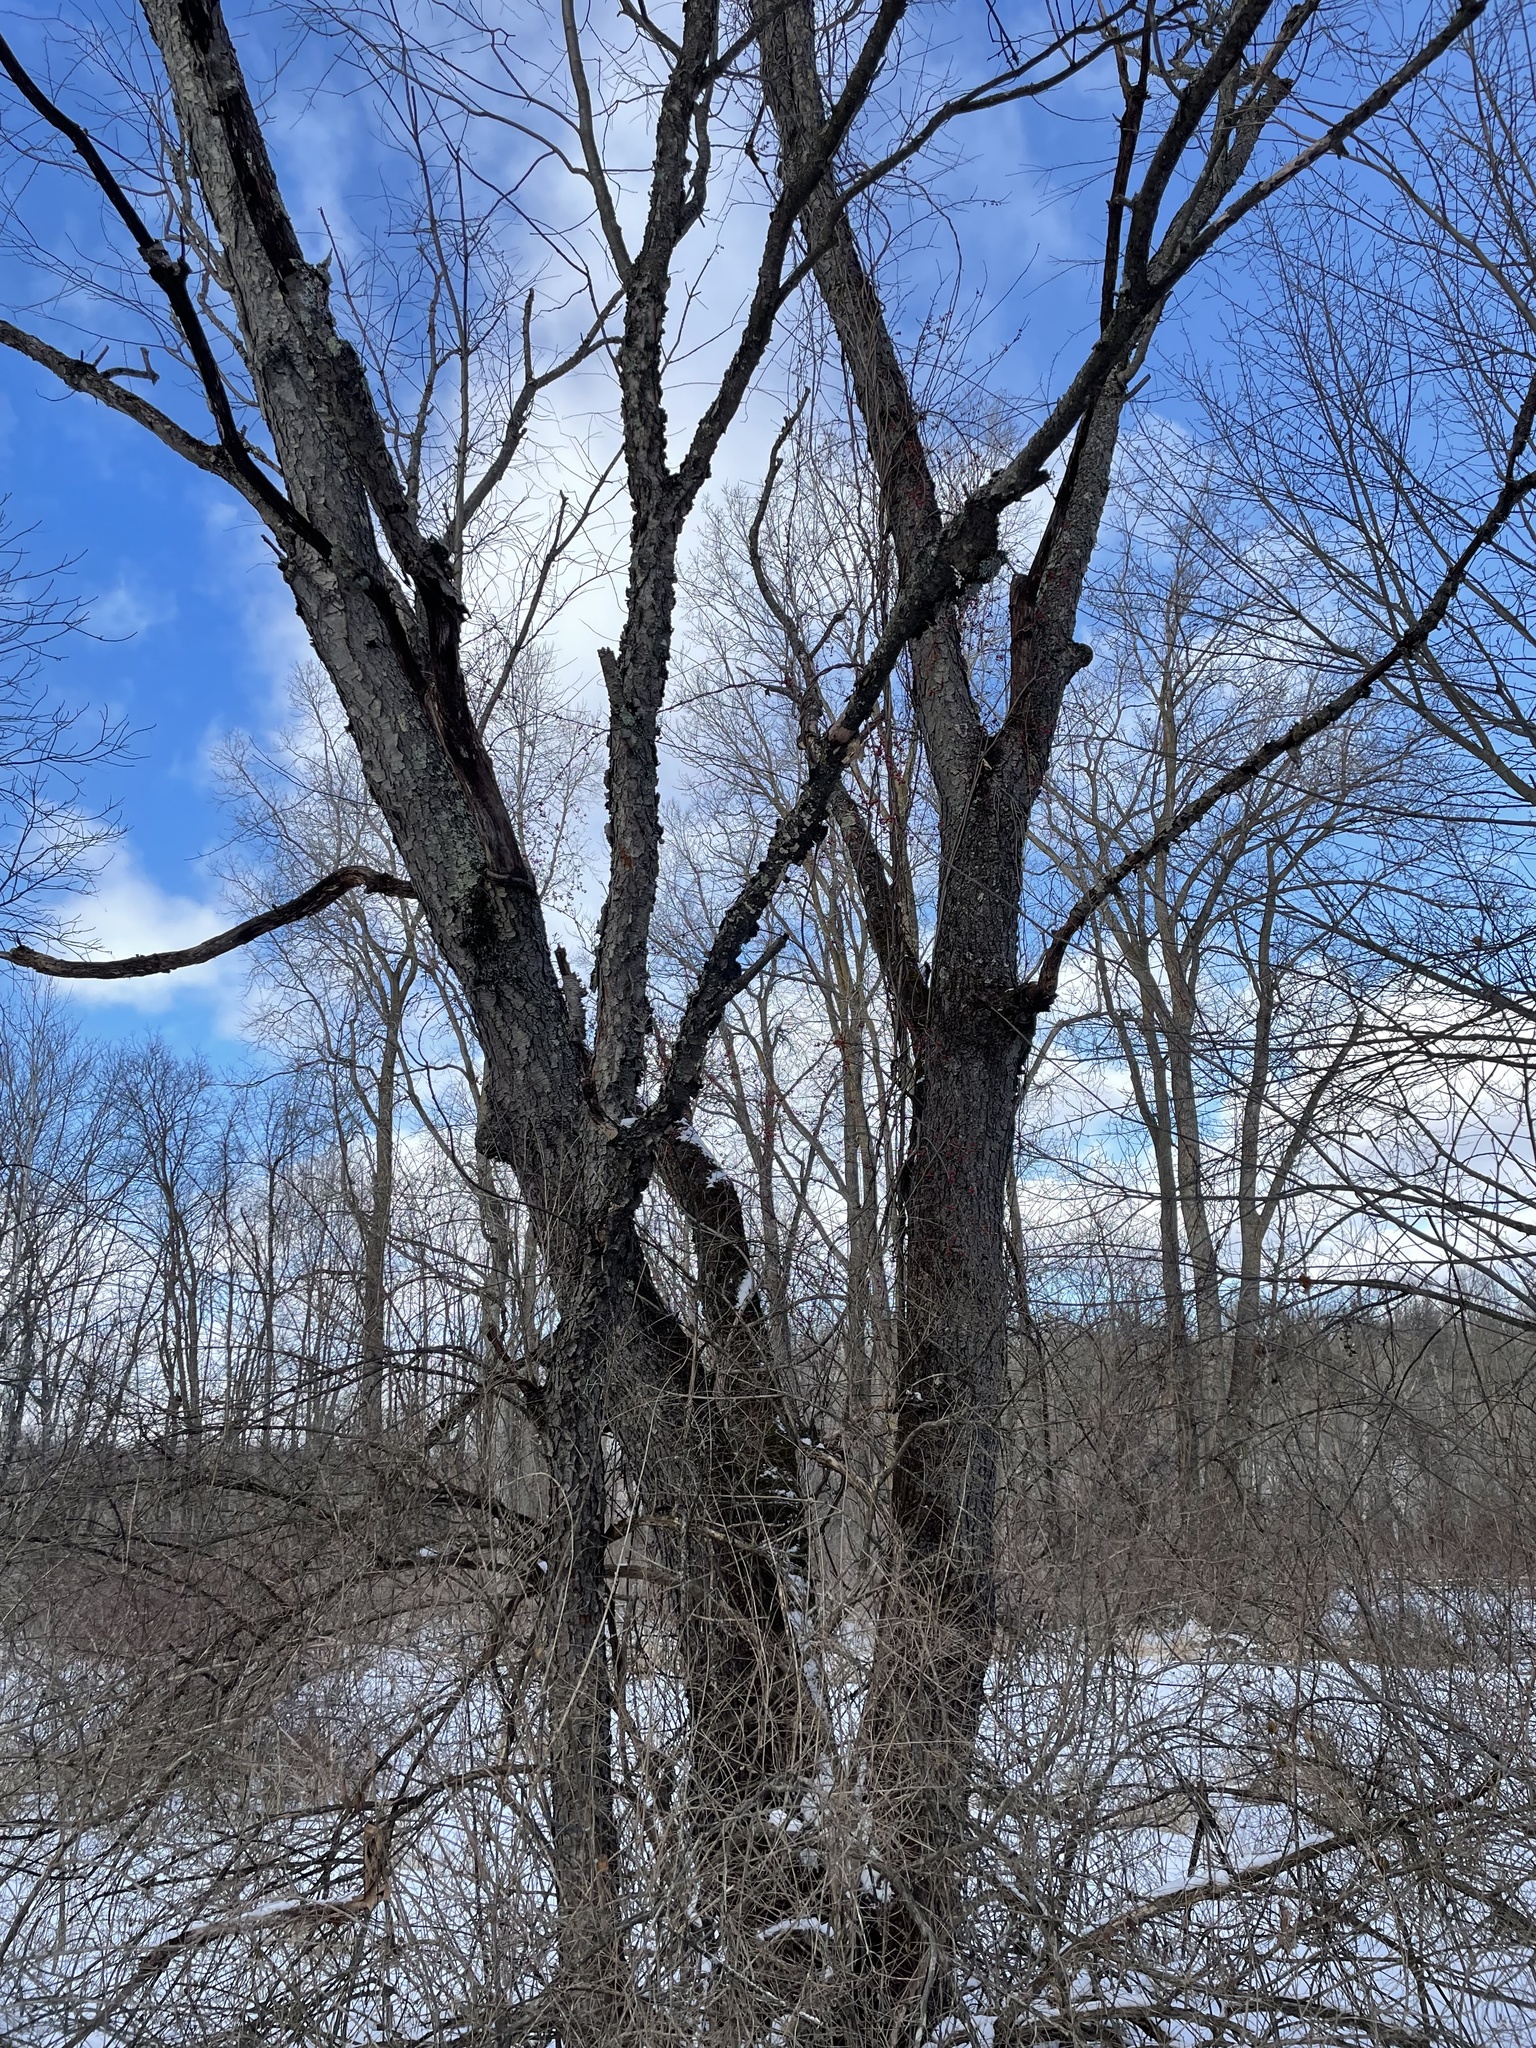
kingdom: Plantae
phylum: Tracheophyta
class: Magnoliopsida
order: Rosales
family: Rosaceae
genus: Prunus
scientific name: Prunus serotina
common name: Black cherry
